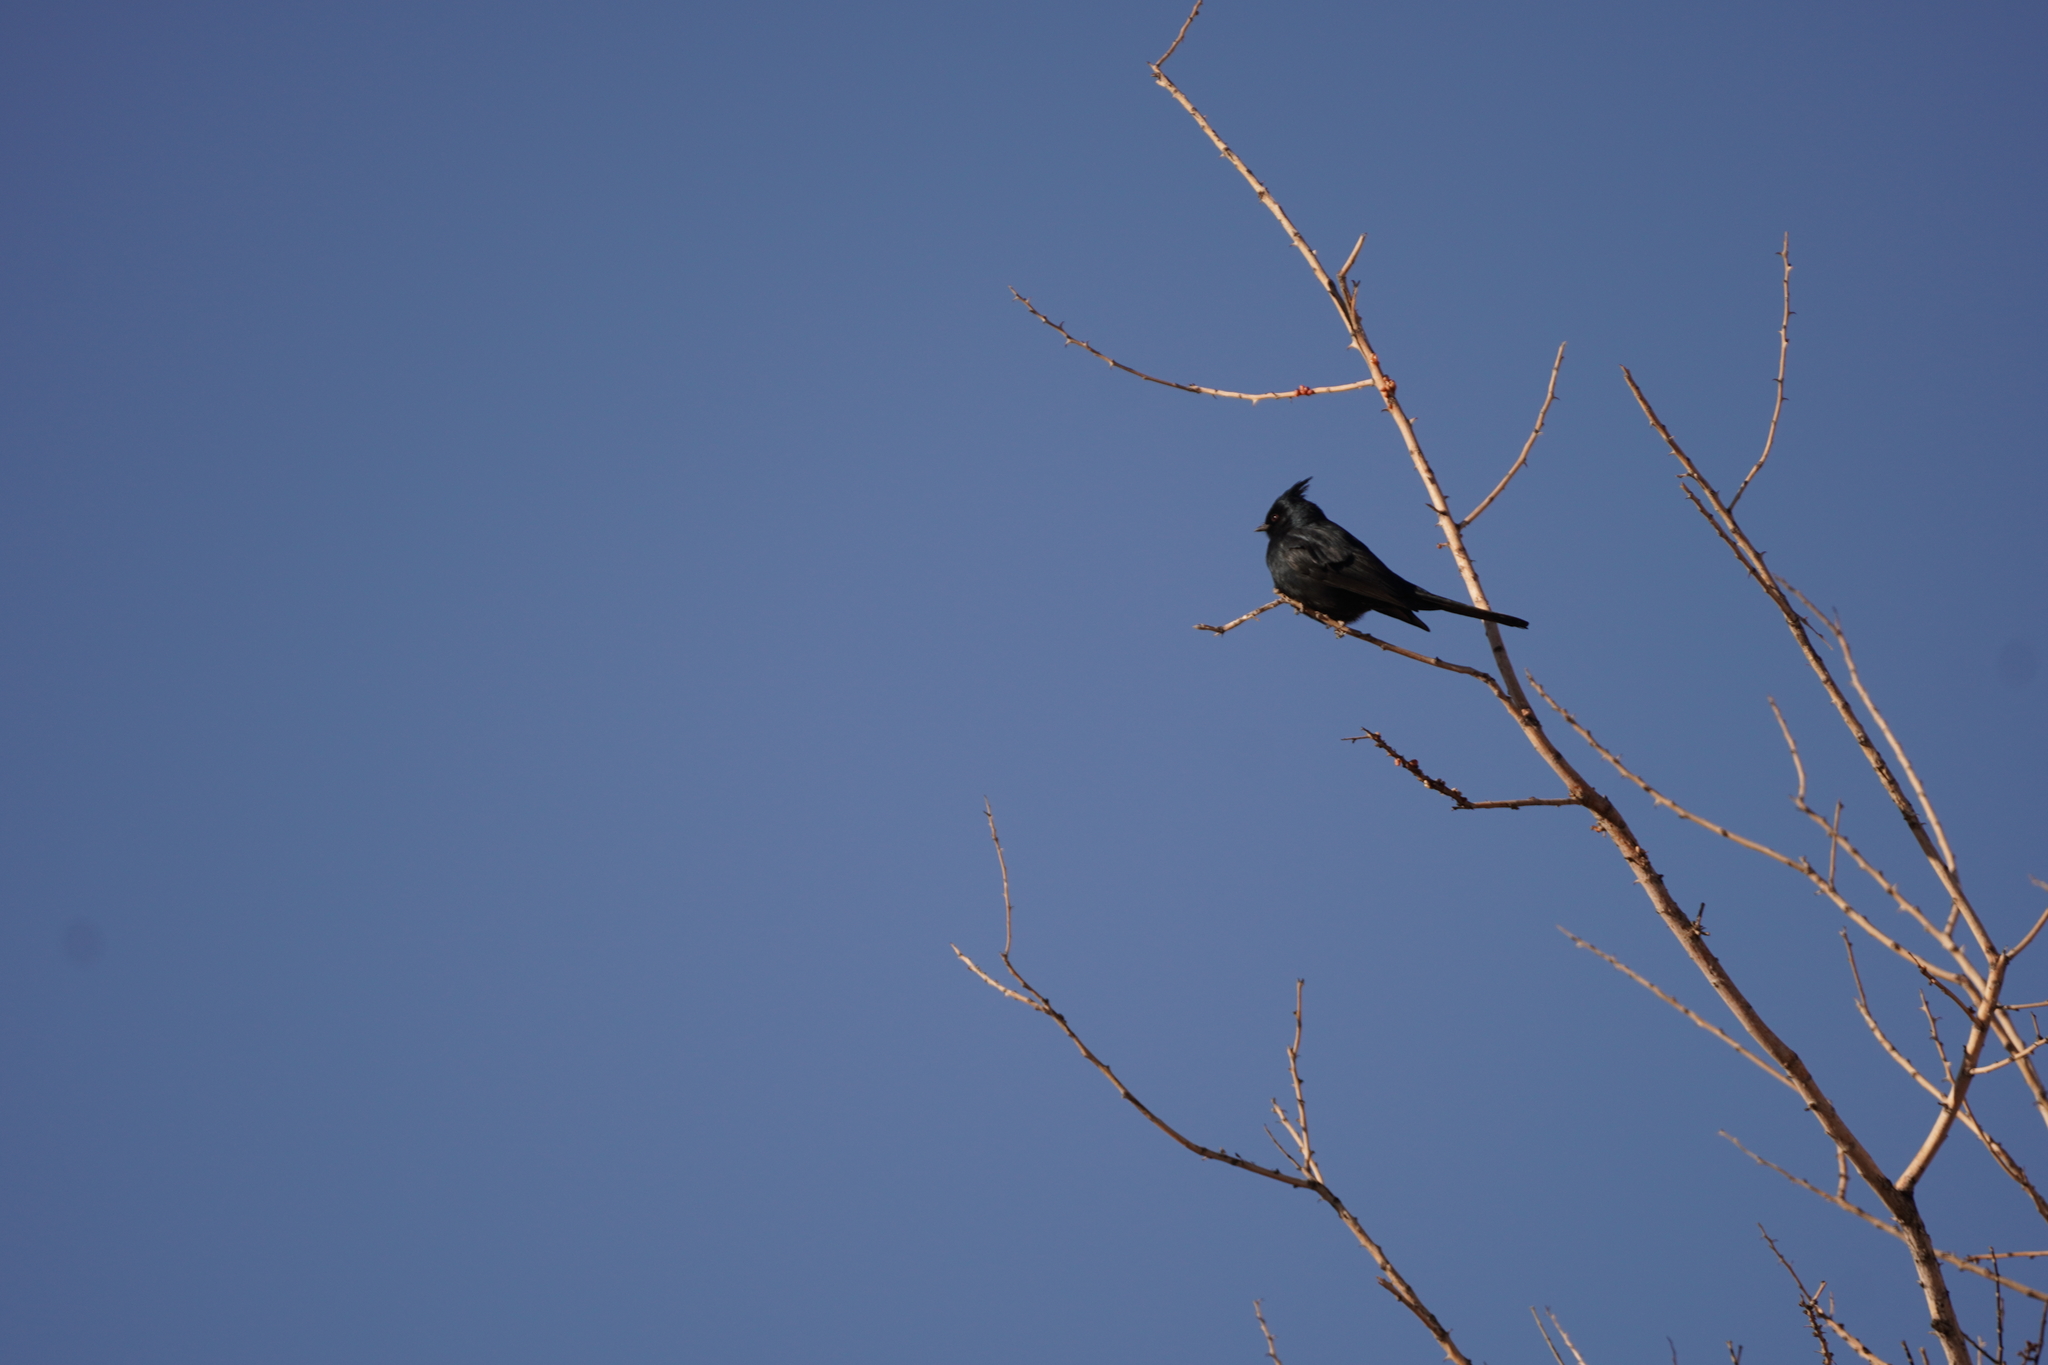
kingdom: Animalia
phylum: Chordata
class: Aves
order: Passeriformes
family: Ptilogonatidae
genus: Phainopepla
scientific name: Phainopepla nitens
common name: Phainopepla
